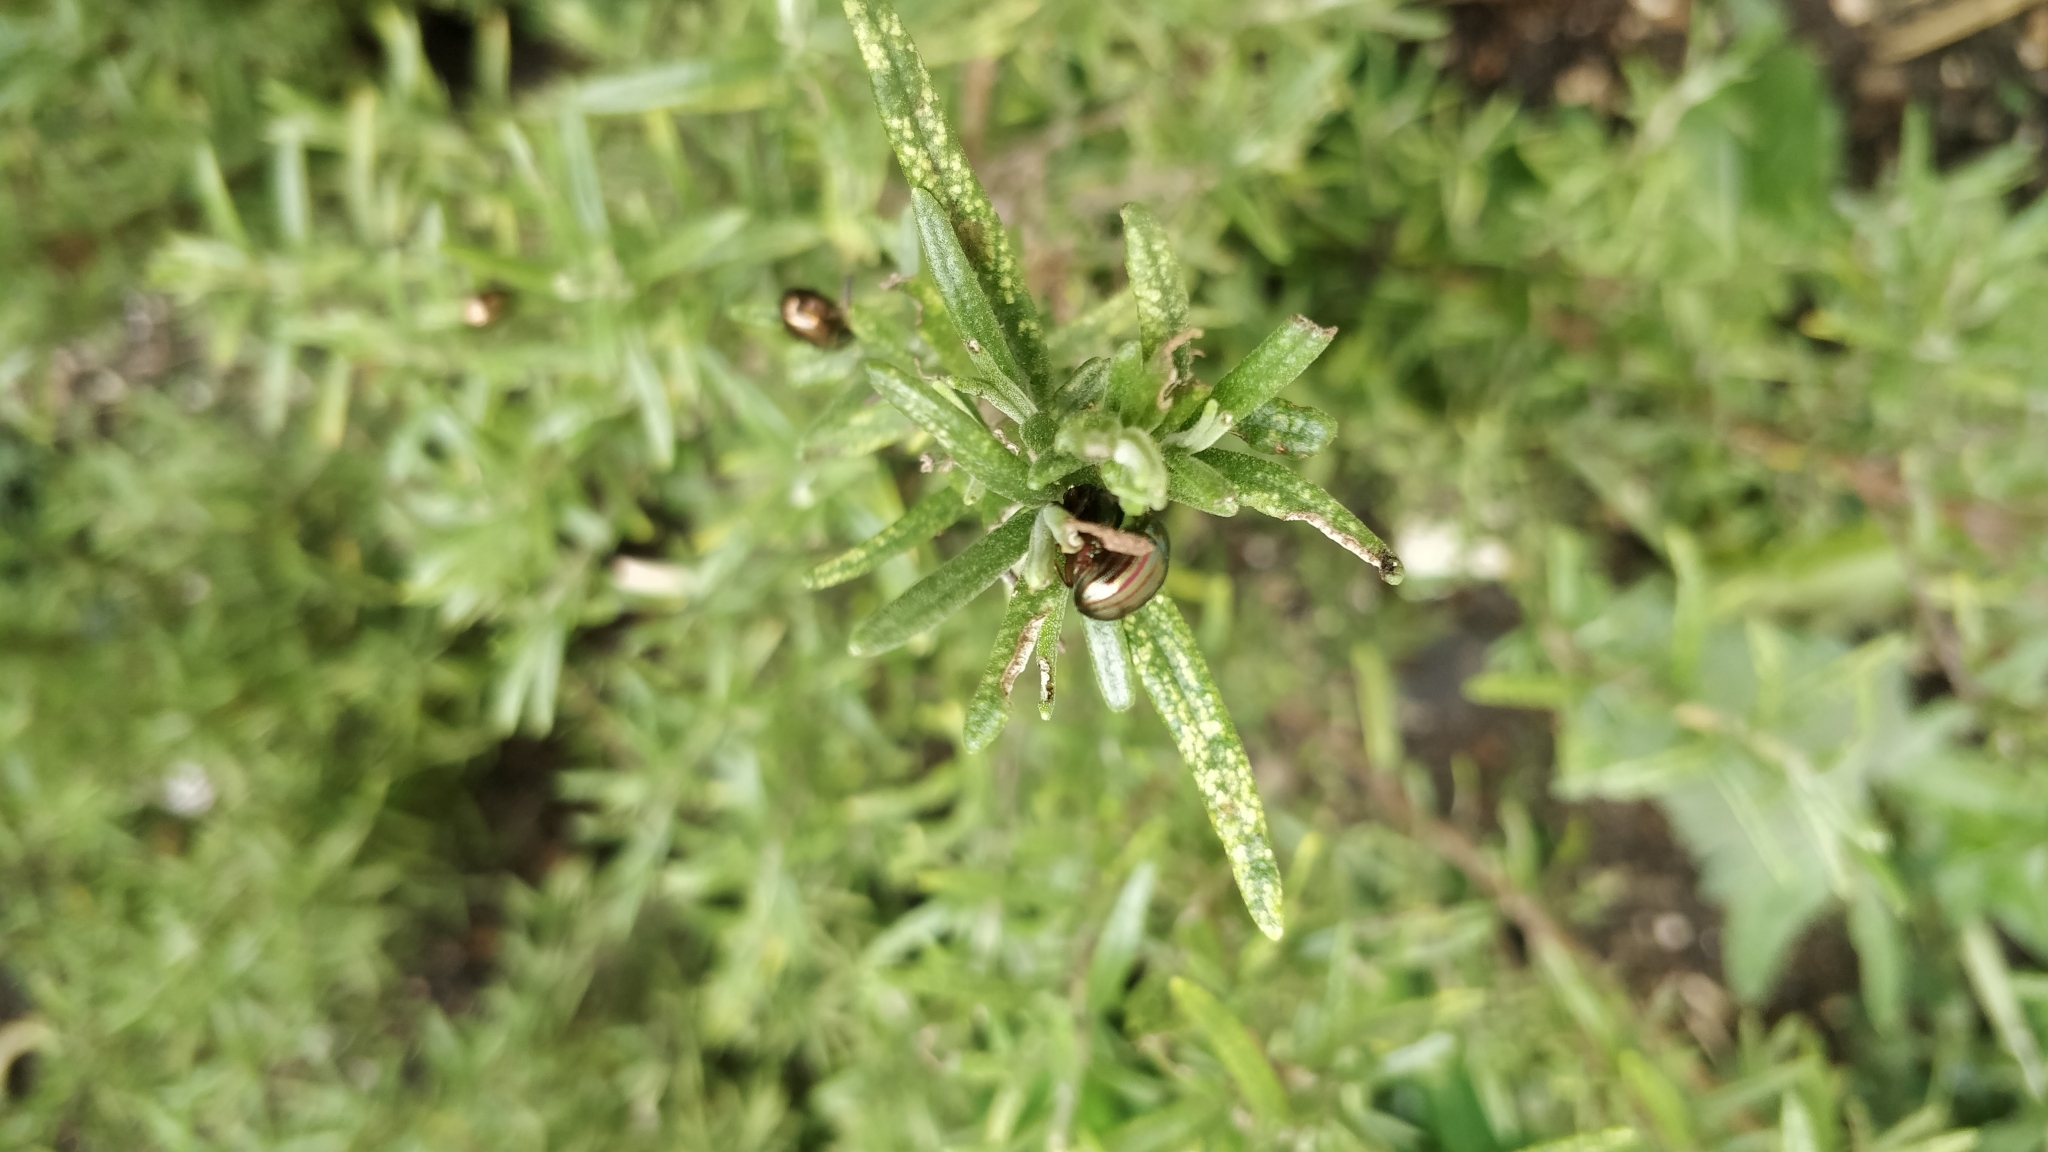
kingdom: Animalia
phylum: Arthropoda
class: Insecta
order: Coleoptera
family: Chrysomelidae
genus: Chrysolina
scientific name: Chrysolina americana
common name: Rosemary beetle
